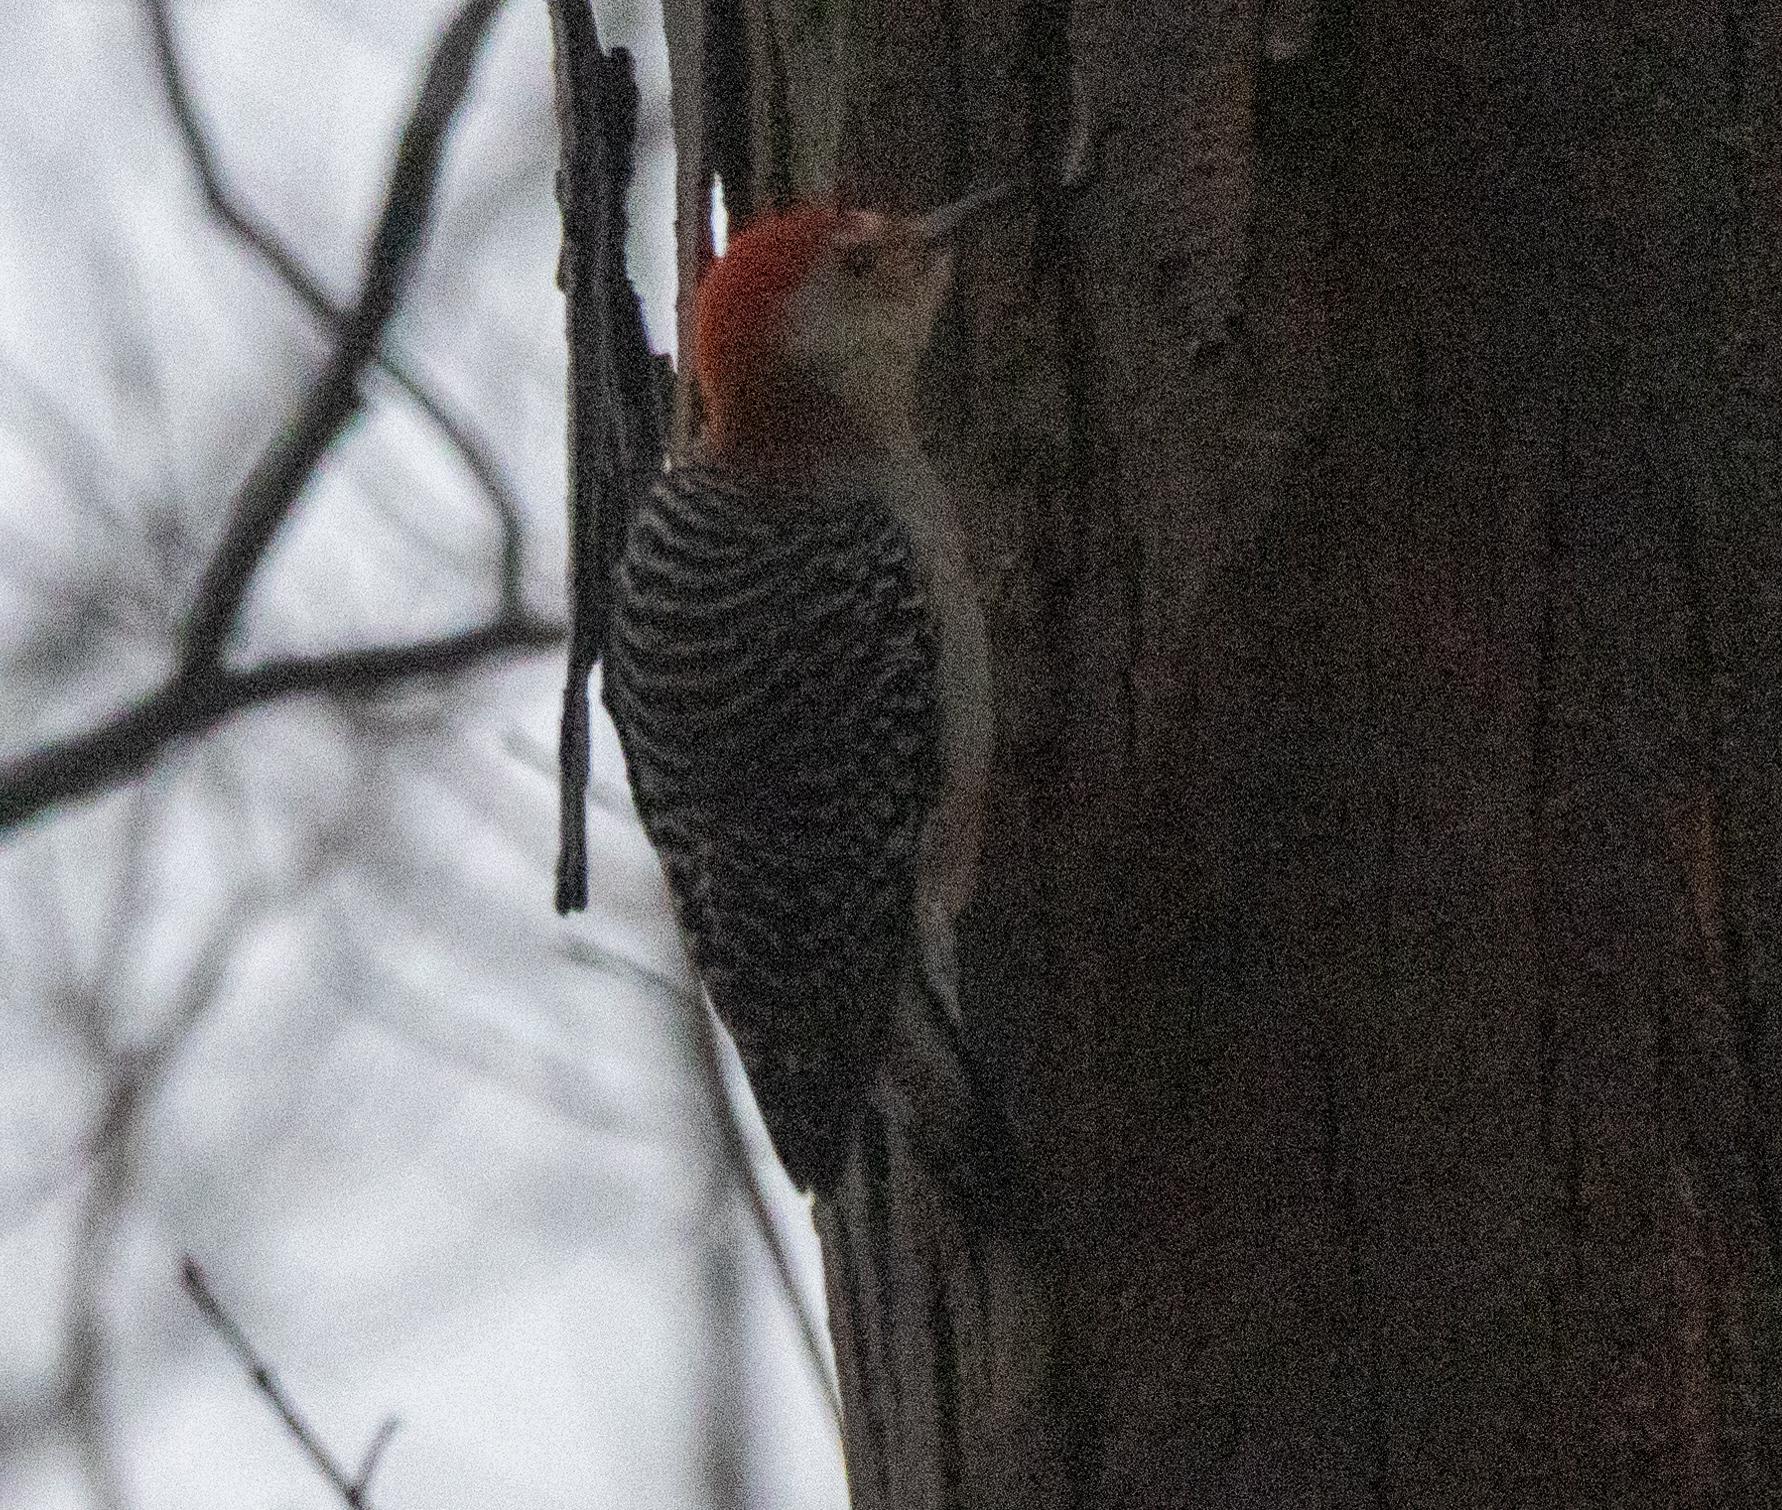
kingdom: Animalia
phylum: Chordata
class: Aves
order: Piciformes
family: Picidae
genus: Melanerpes
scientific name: Melanerpes carolinus
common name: Red-bellied woodpecker
